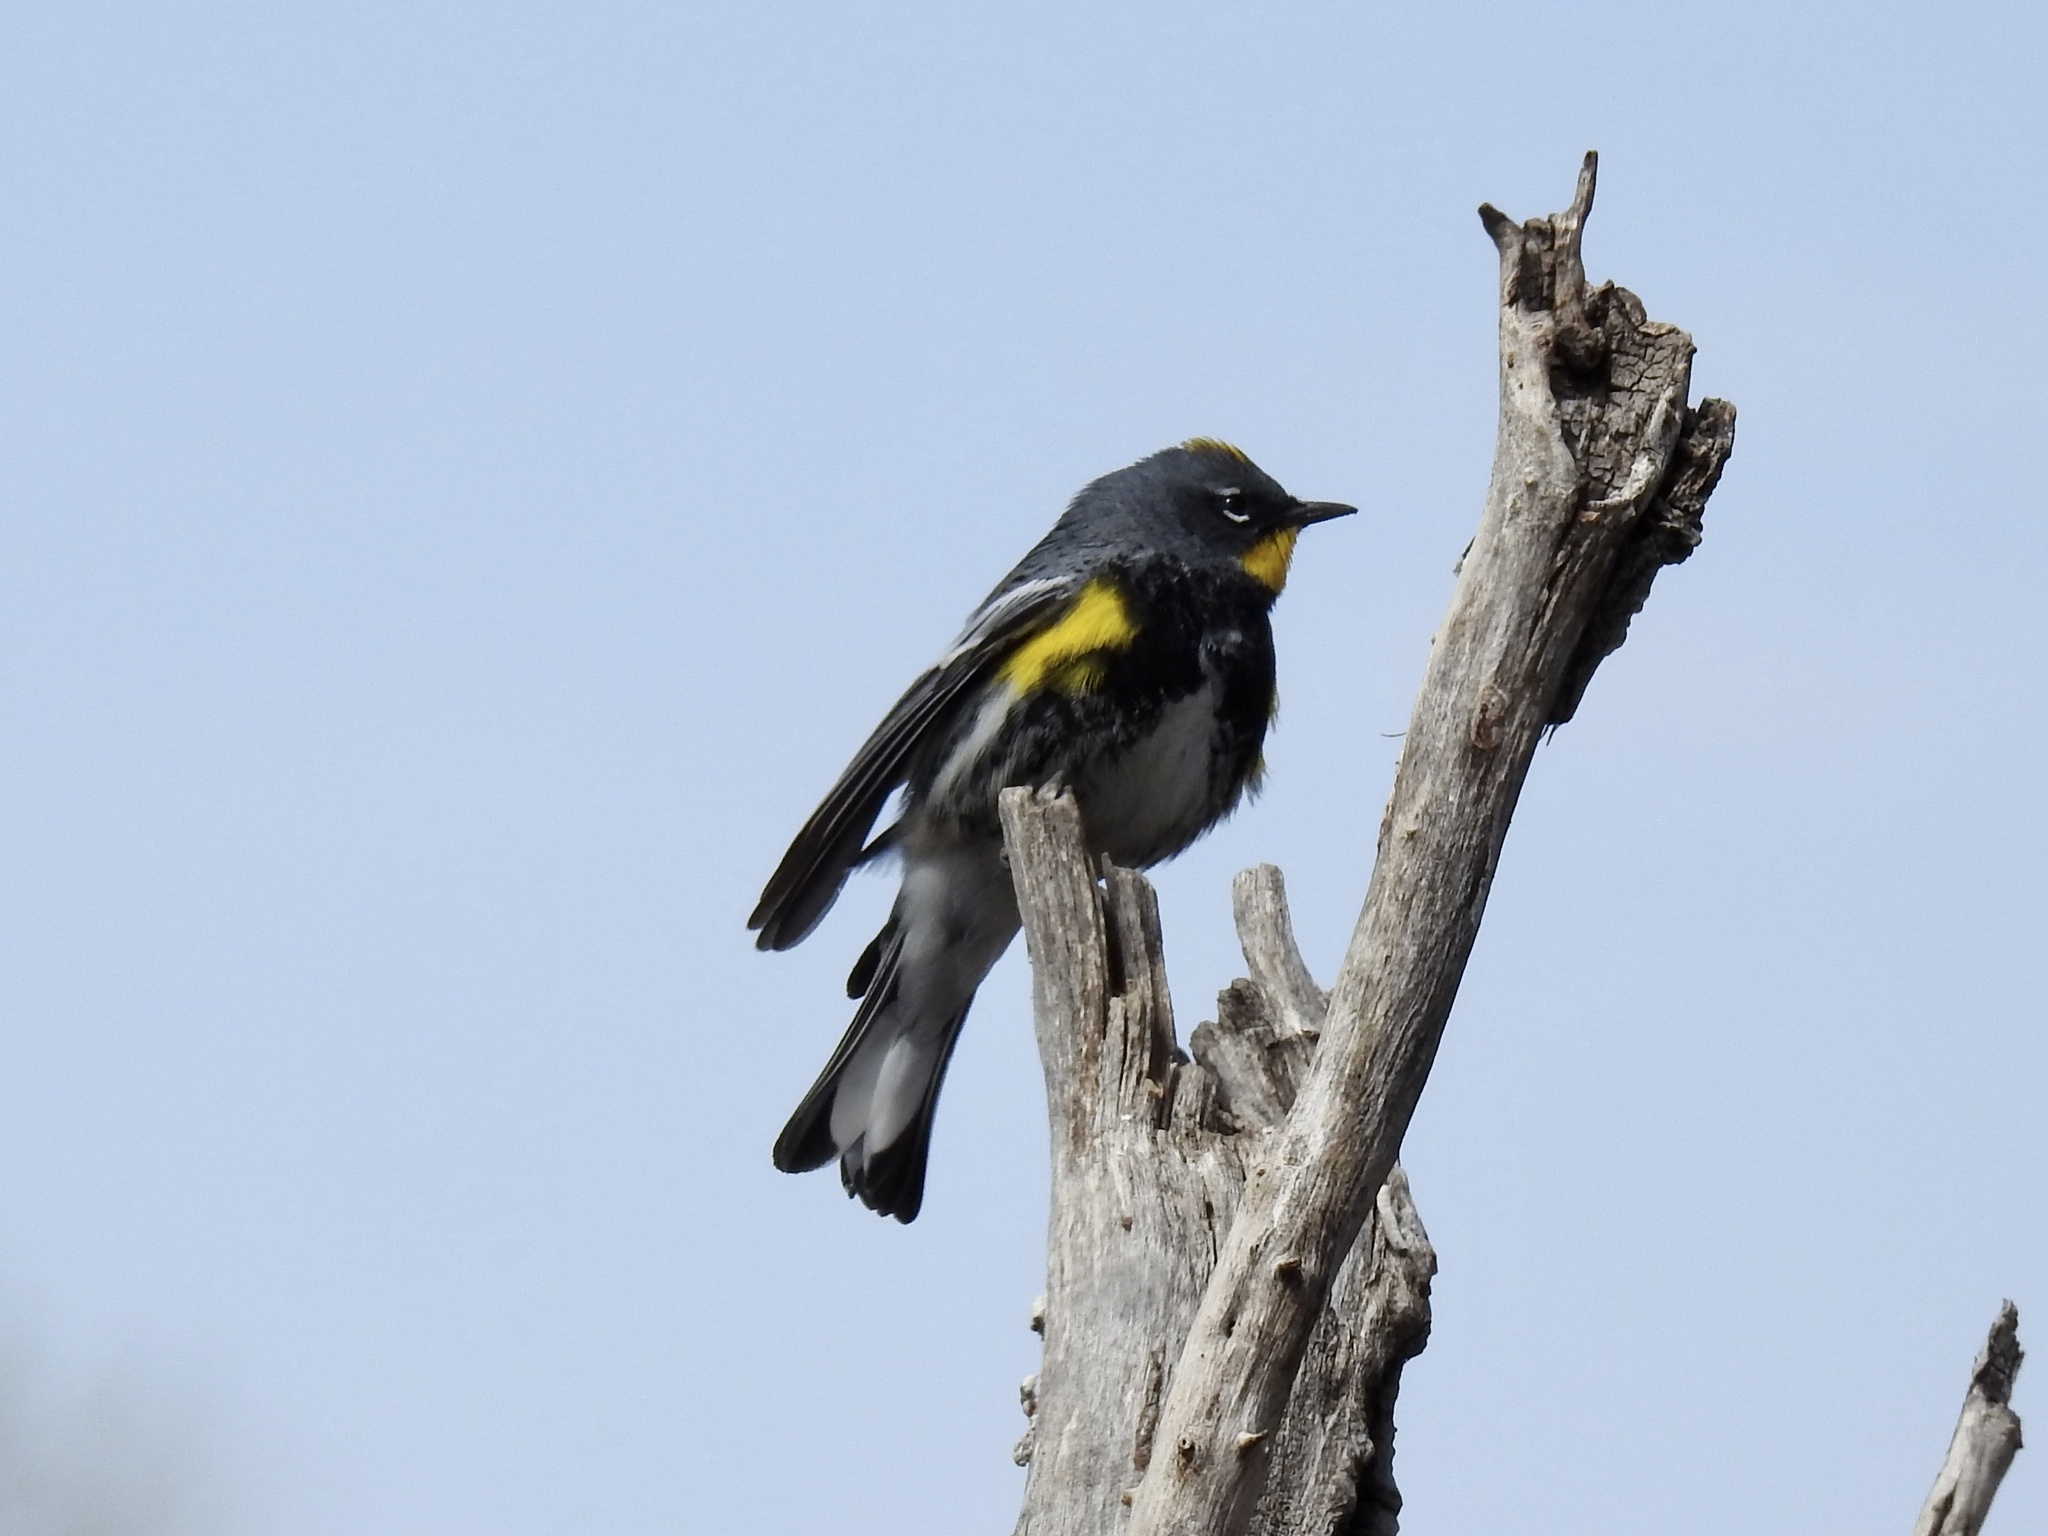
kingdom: Animalia
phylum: Chordata
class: Aves
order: Passeriformes
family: Parulidae
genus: Setophaga
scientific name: Setophaga coronata
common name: Myrtle warbler
